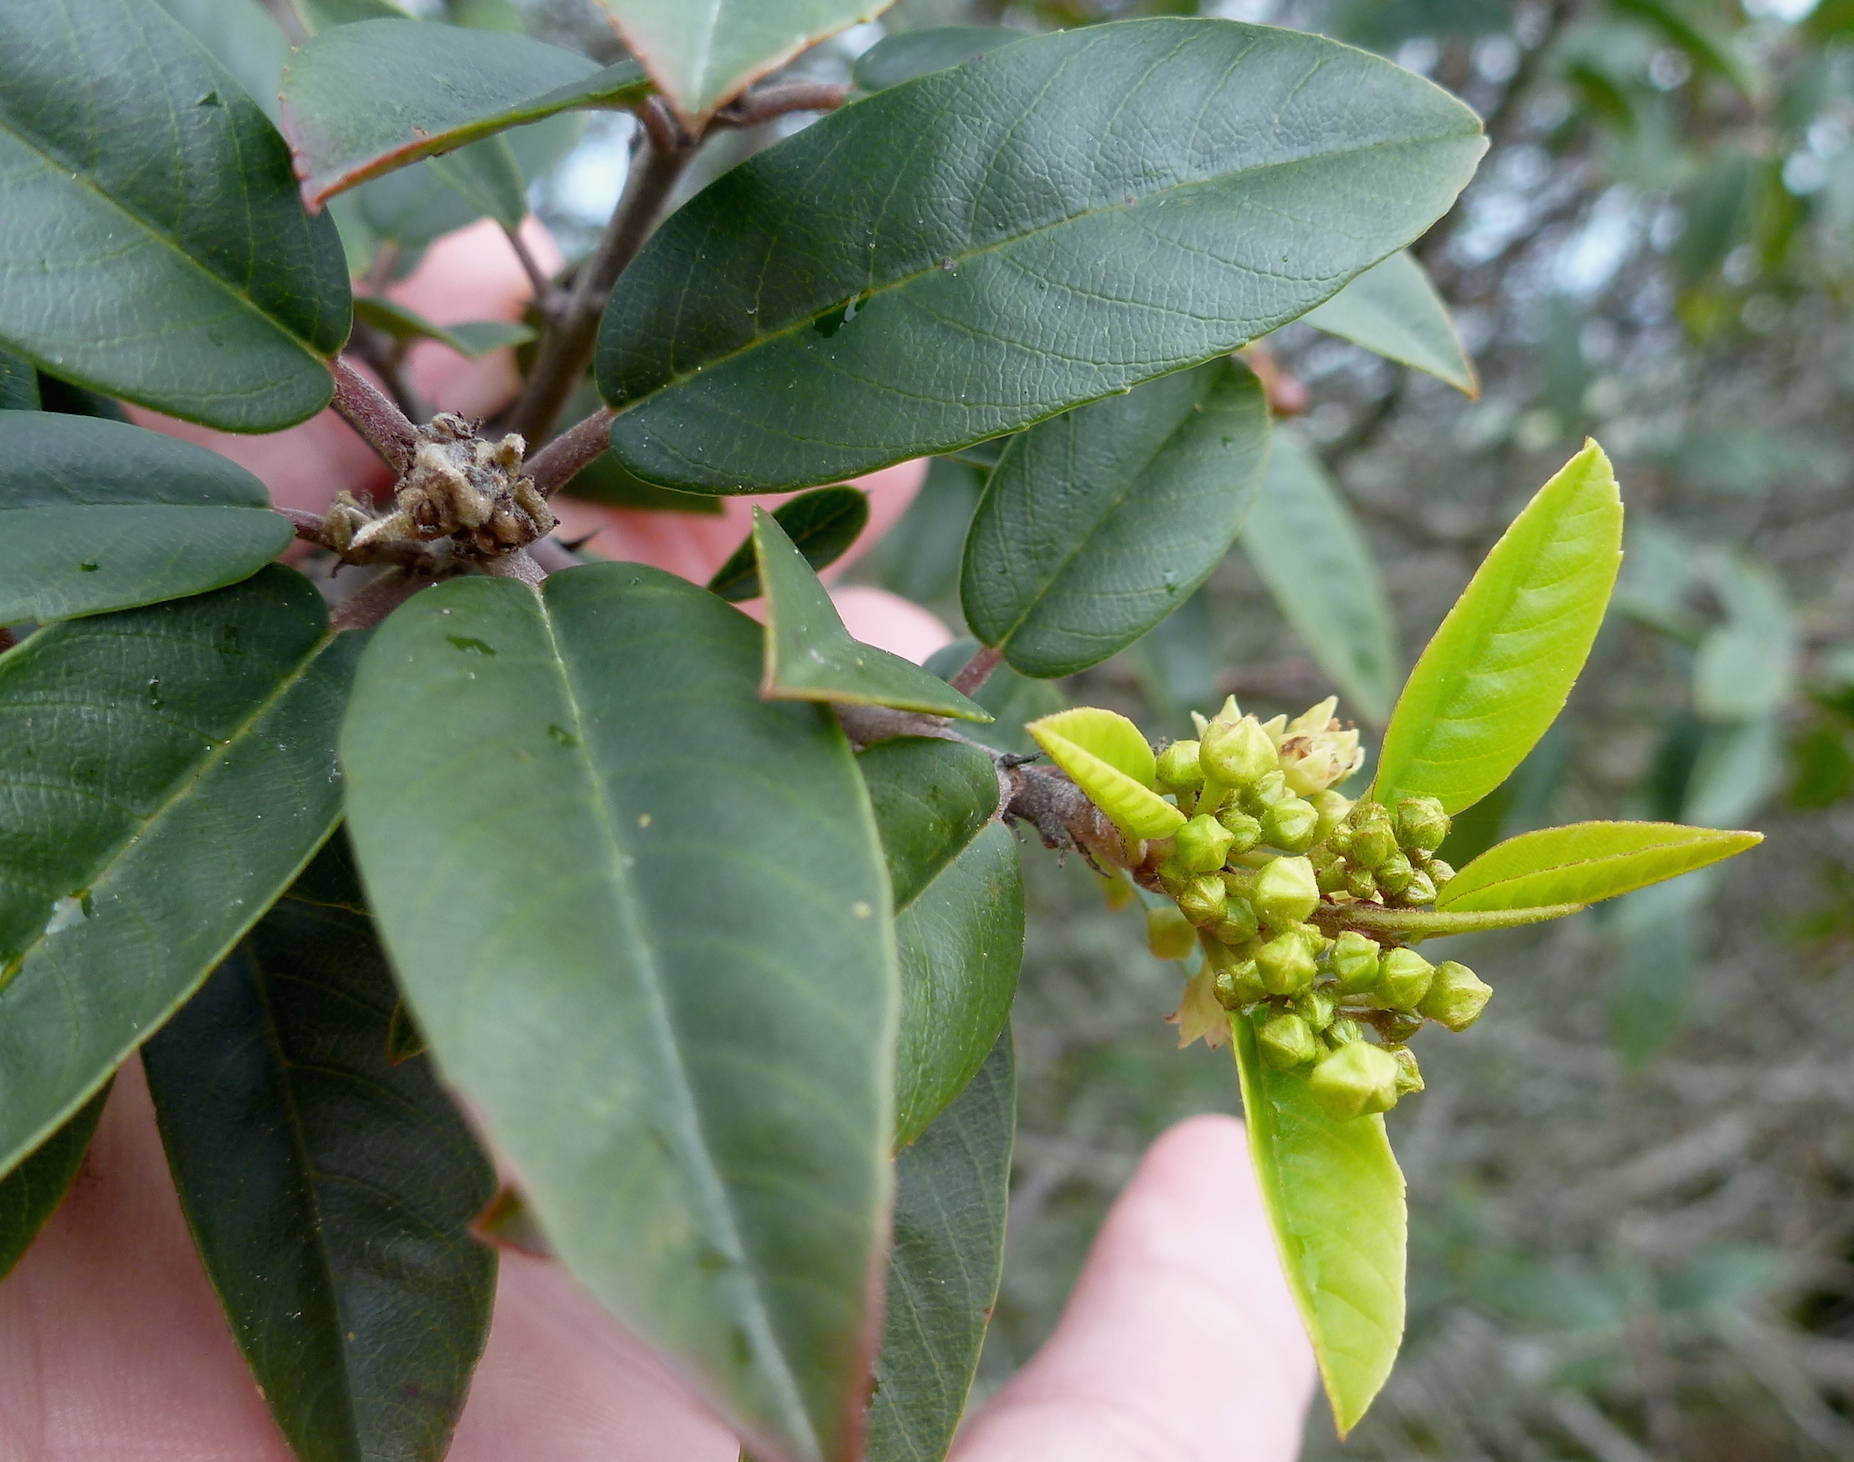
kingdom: Plantae
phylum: Tracheophyta
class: Magnoliopsida
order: Rosales
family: Rhamnaceae
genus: Frangula
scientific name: Frangula californica
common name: California buckthorn
